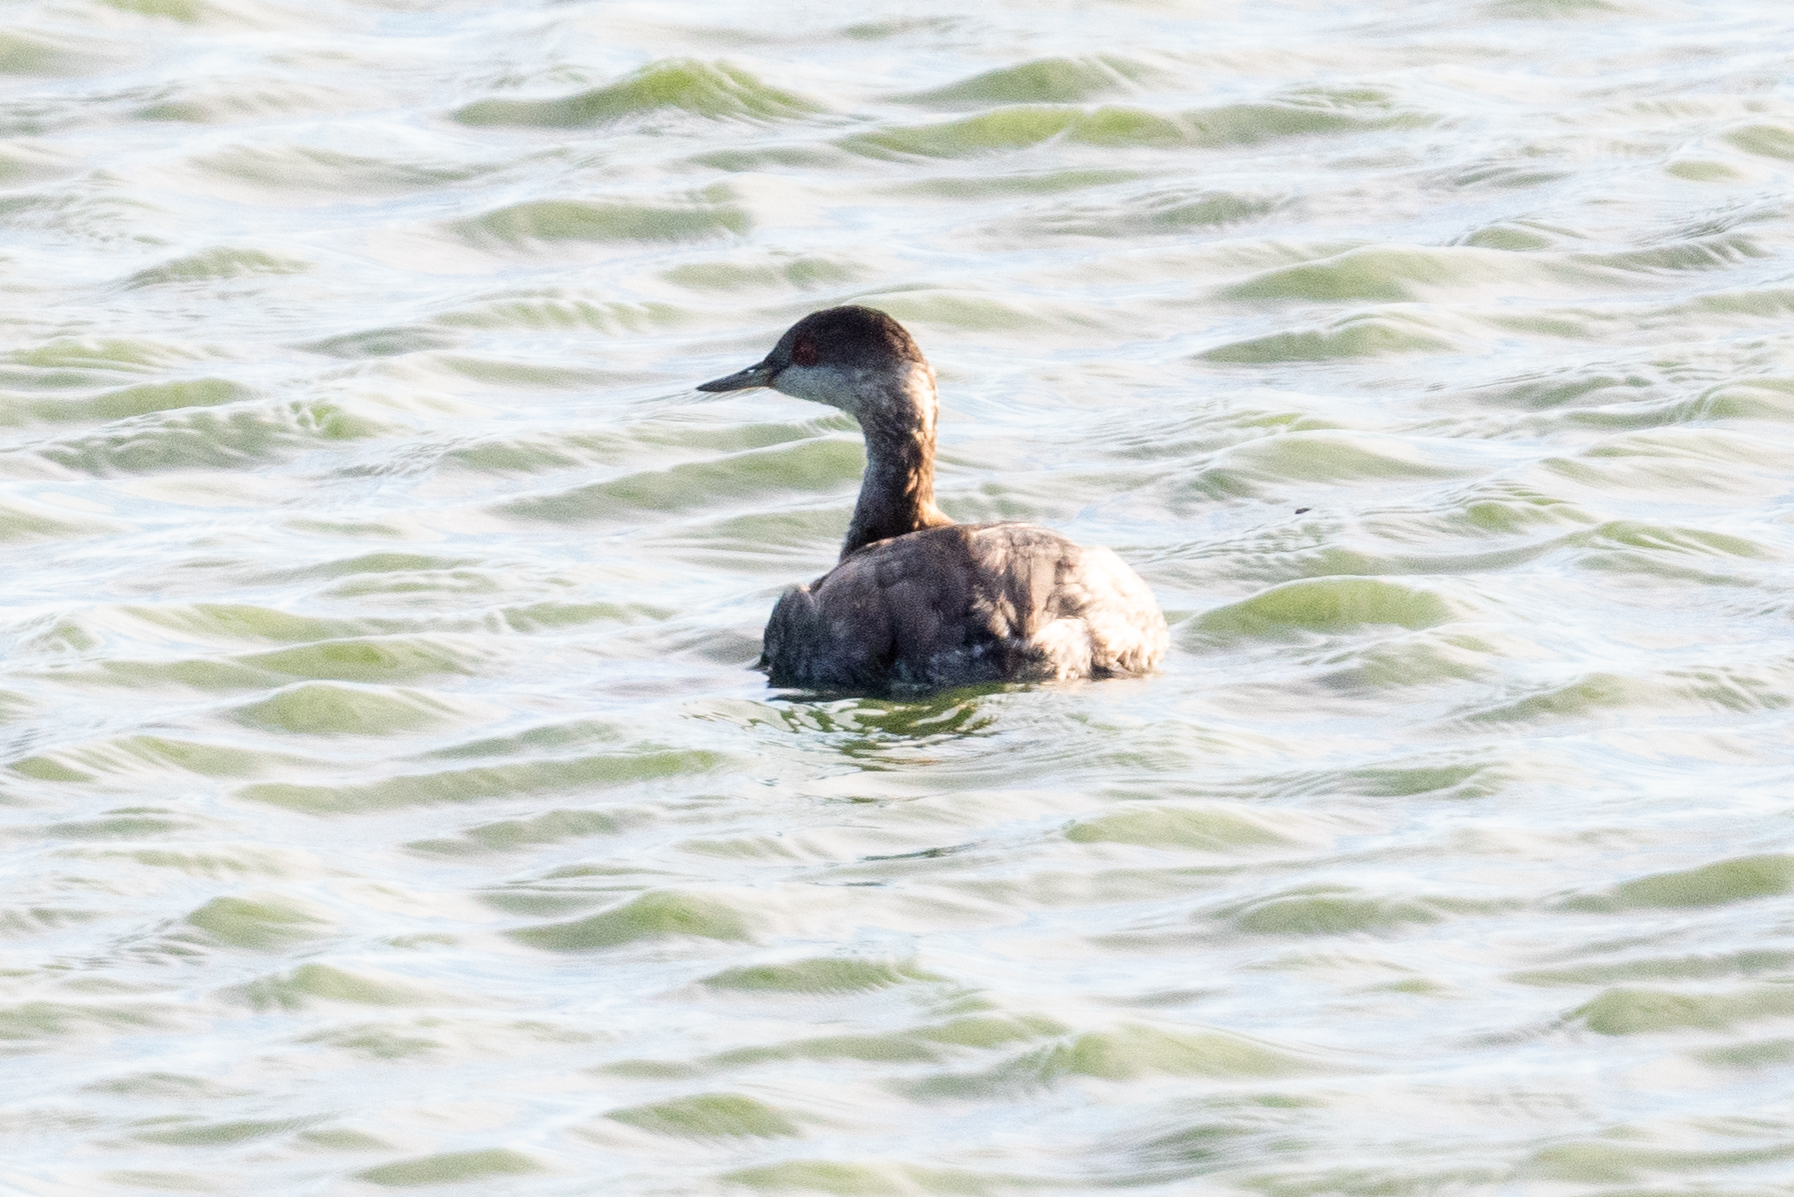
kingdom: Animalia
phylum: Chordata
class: Aves
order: Podicipediformes
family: Podicipedidae
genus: Podiceps
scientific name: Podiceps nigricollis
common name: Black-necked grebe
